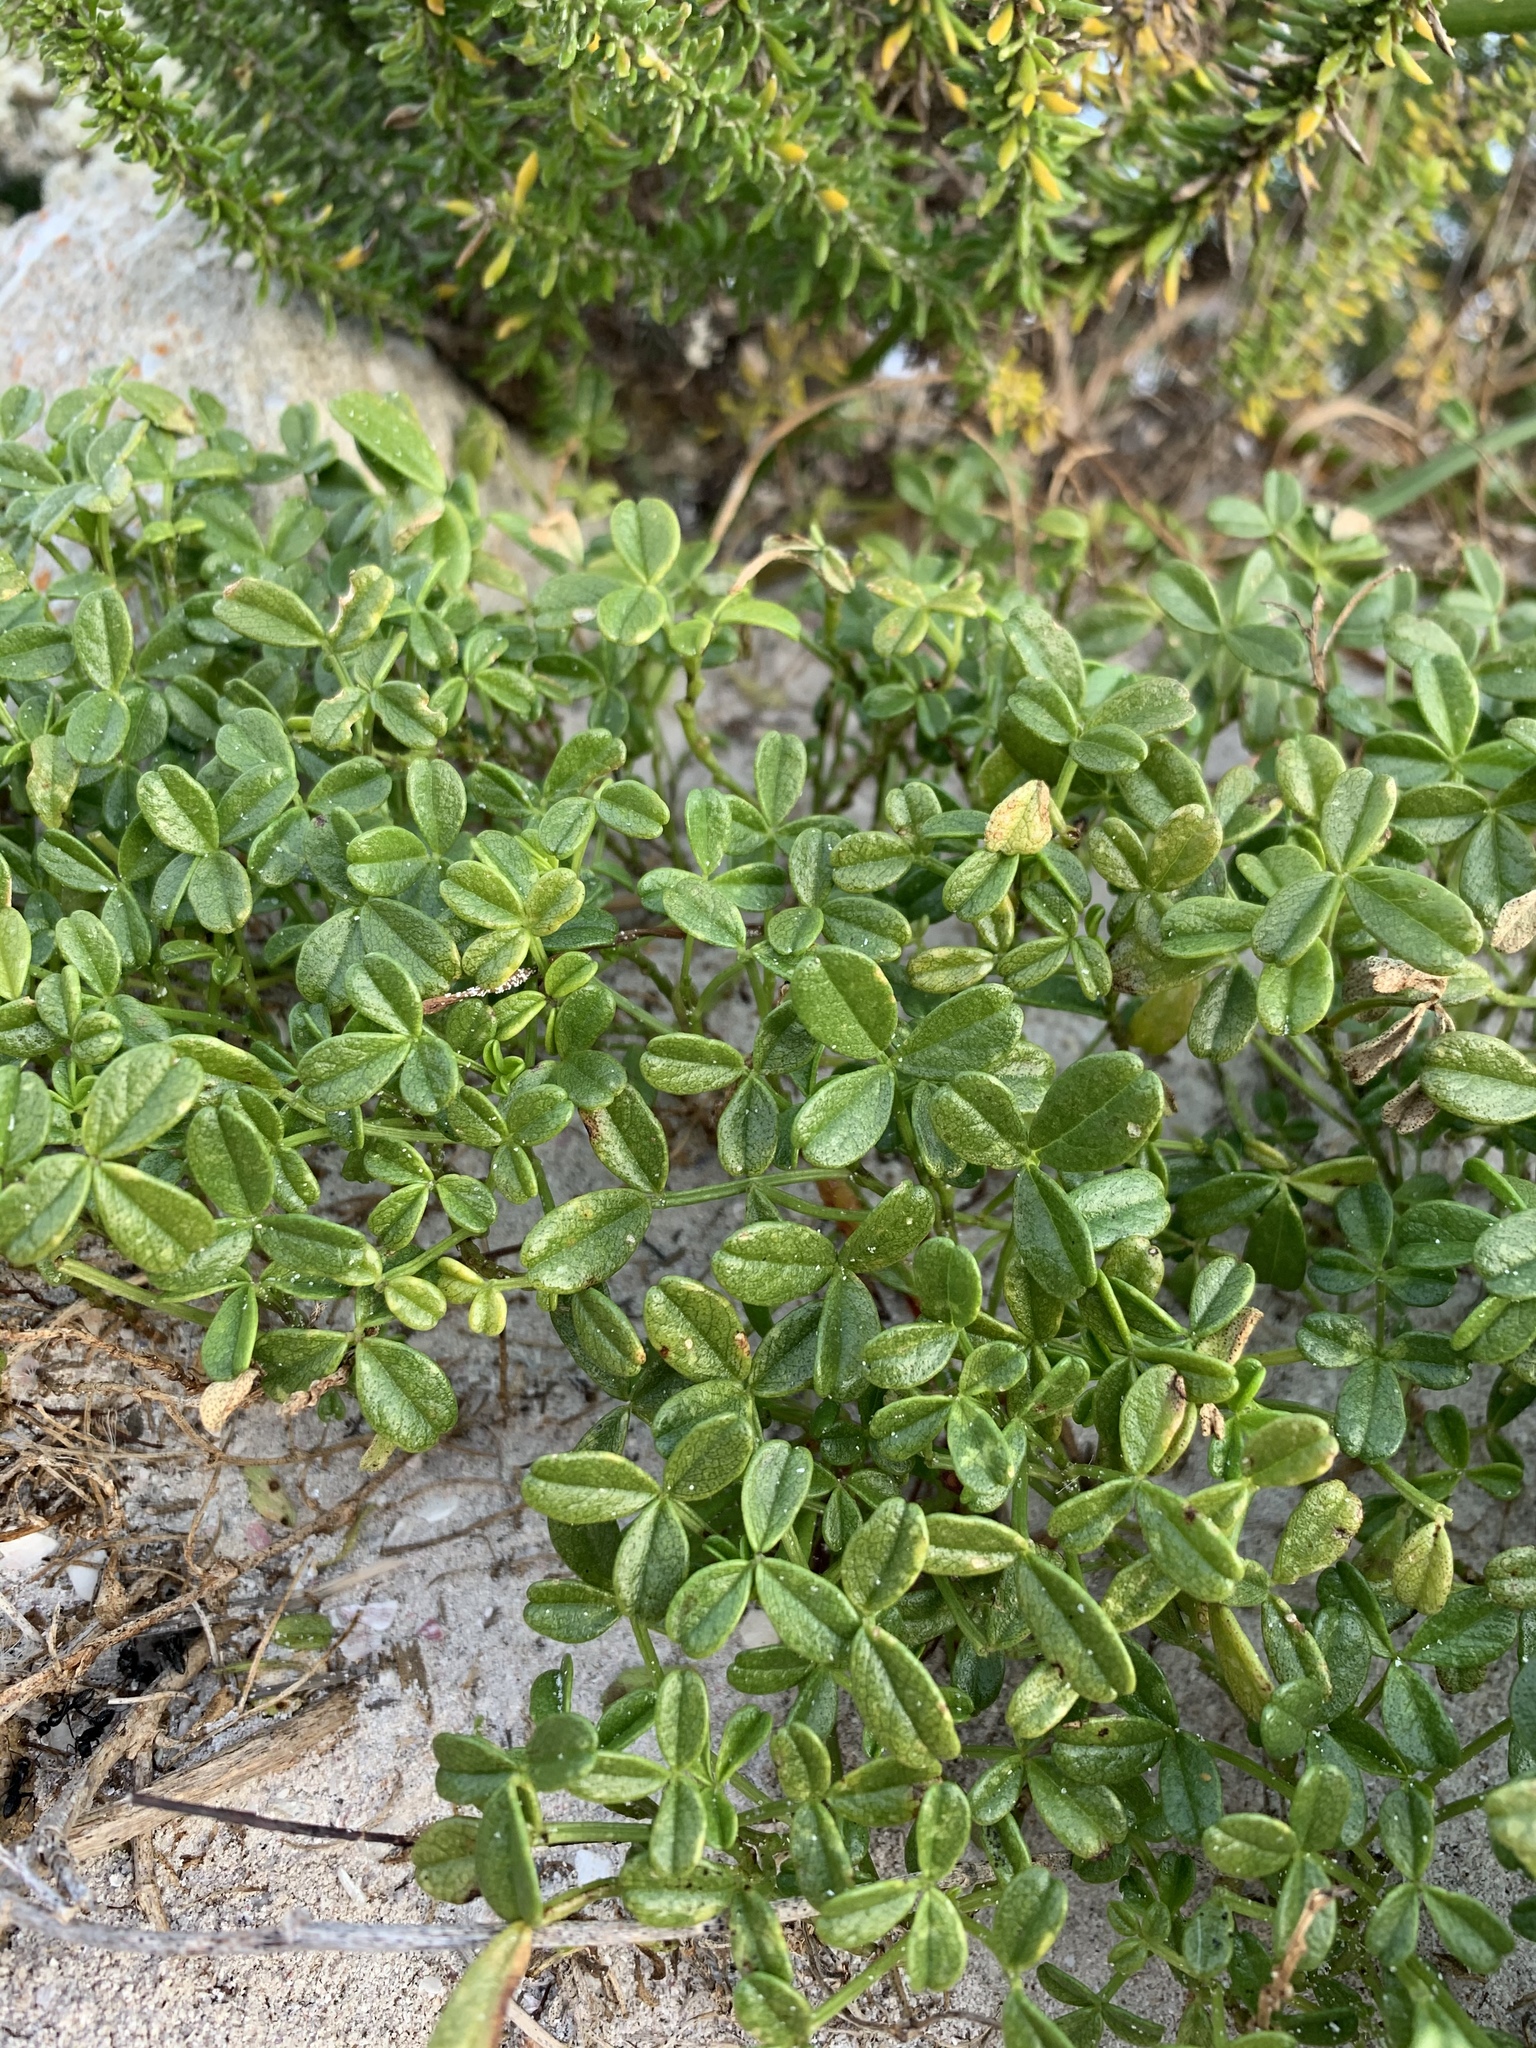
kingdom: Plantae
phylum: Tracheophyta
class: Magnoliopsida
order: Fabales
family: Fabaceae
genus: Psoralea
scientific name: Psoralea repens
